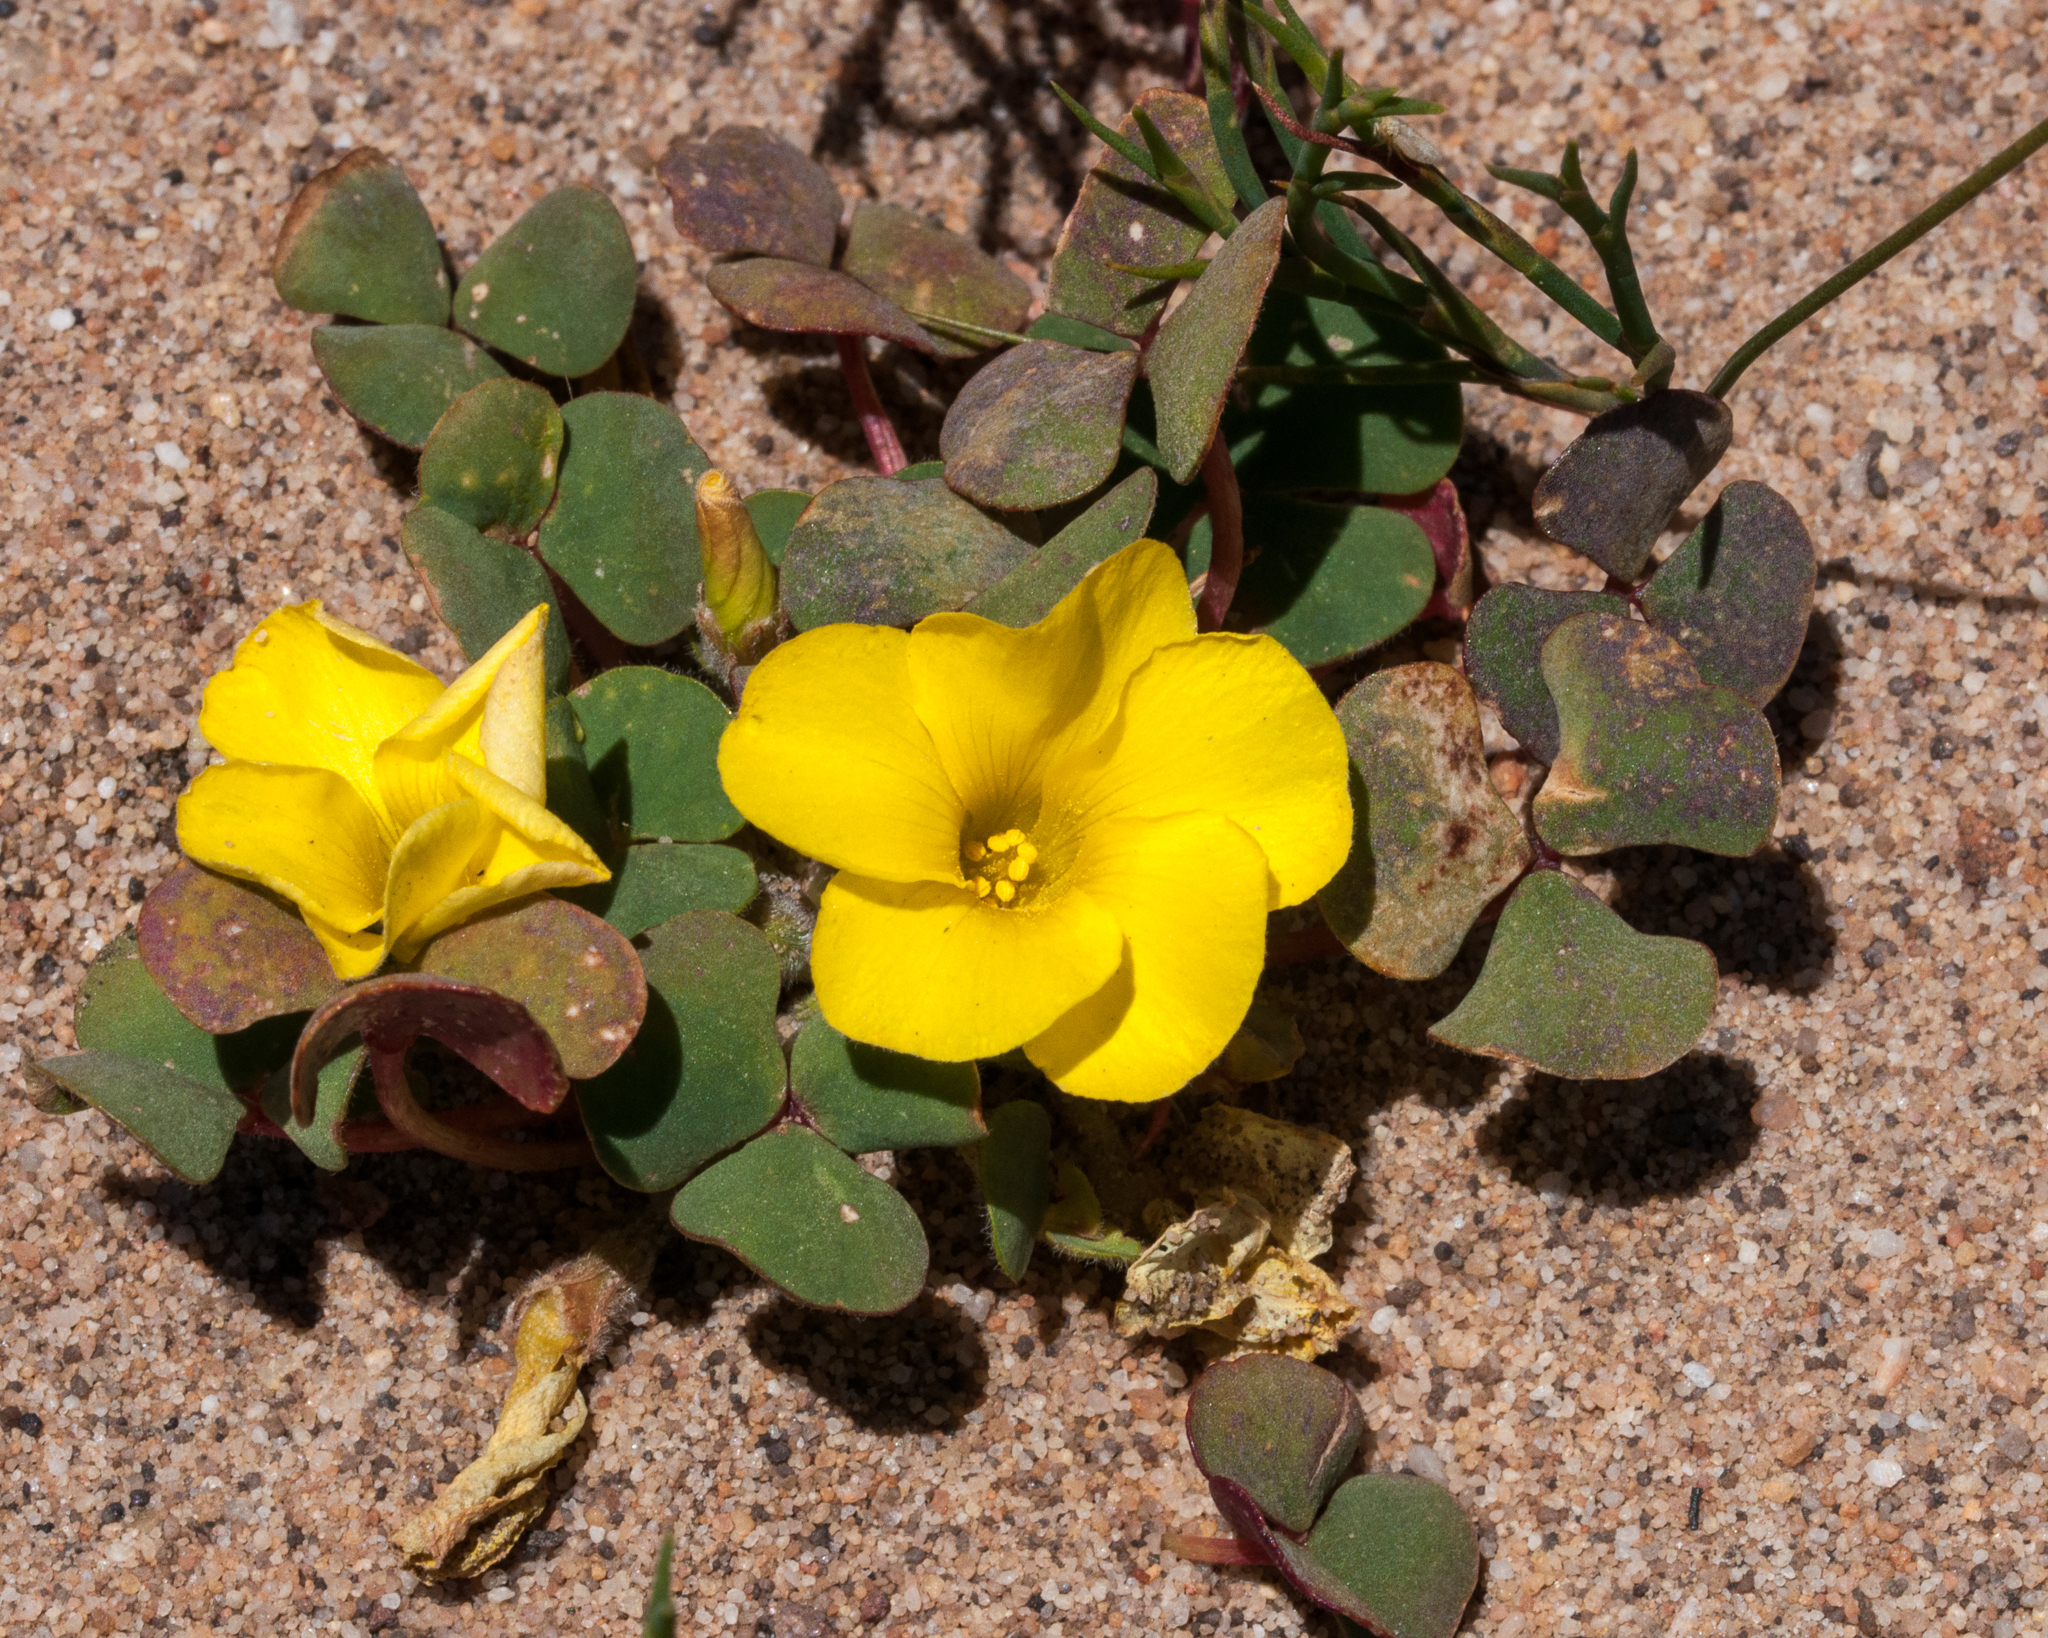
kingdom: Plantae
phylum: Tracheophyta
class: Magnoliopsida
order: Oxalidales
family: Oxalidaceae
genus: Oxalis
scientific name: Oxalis luteola
